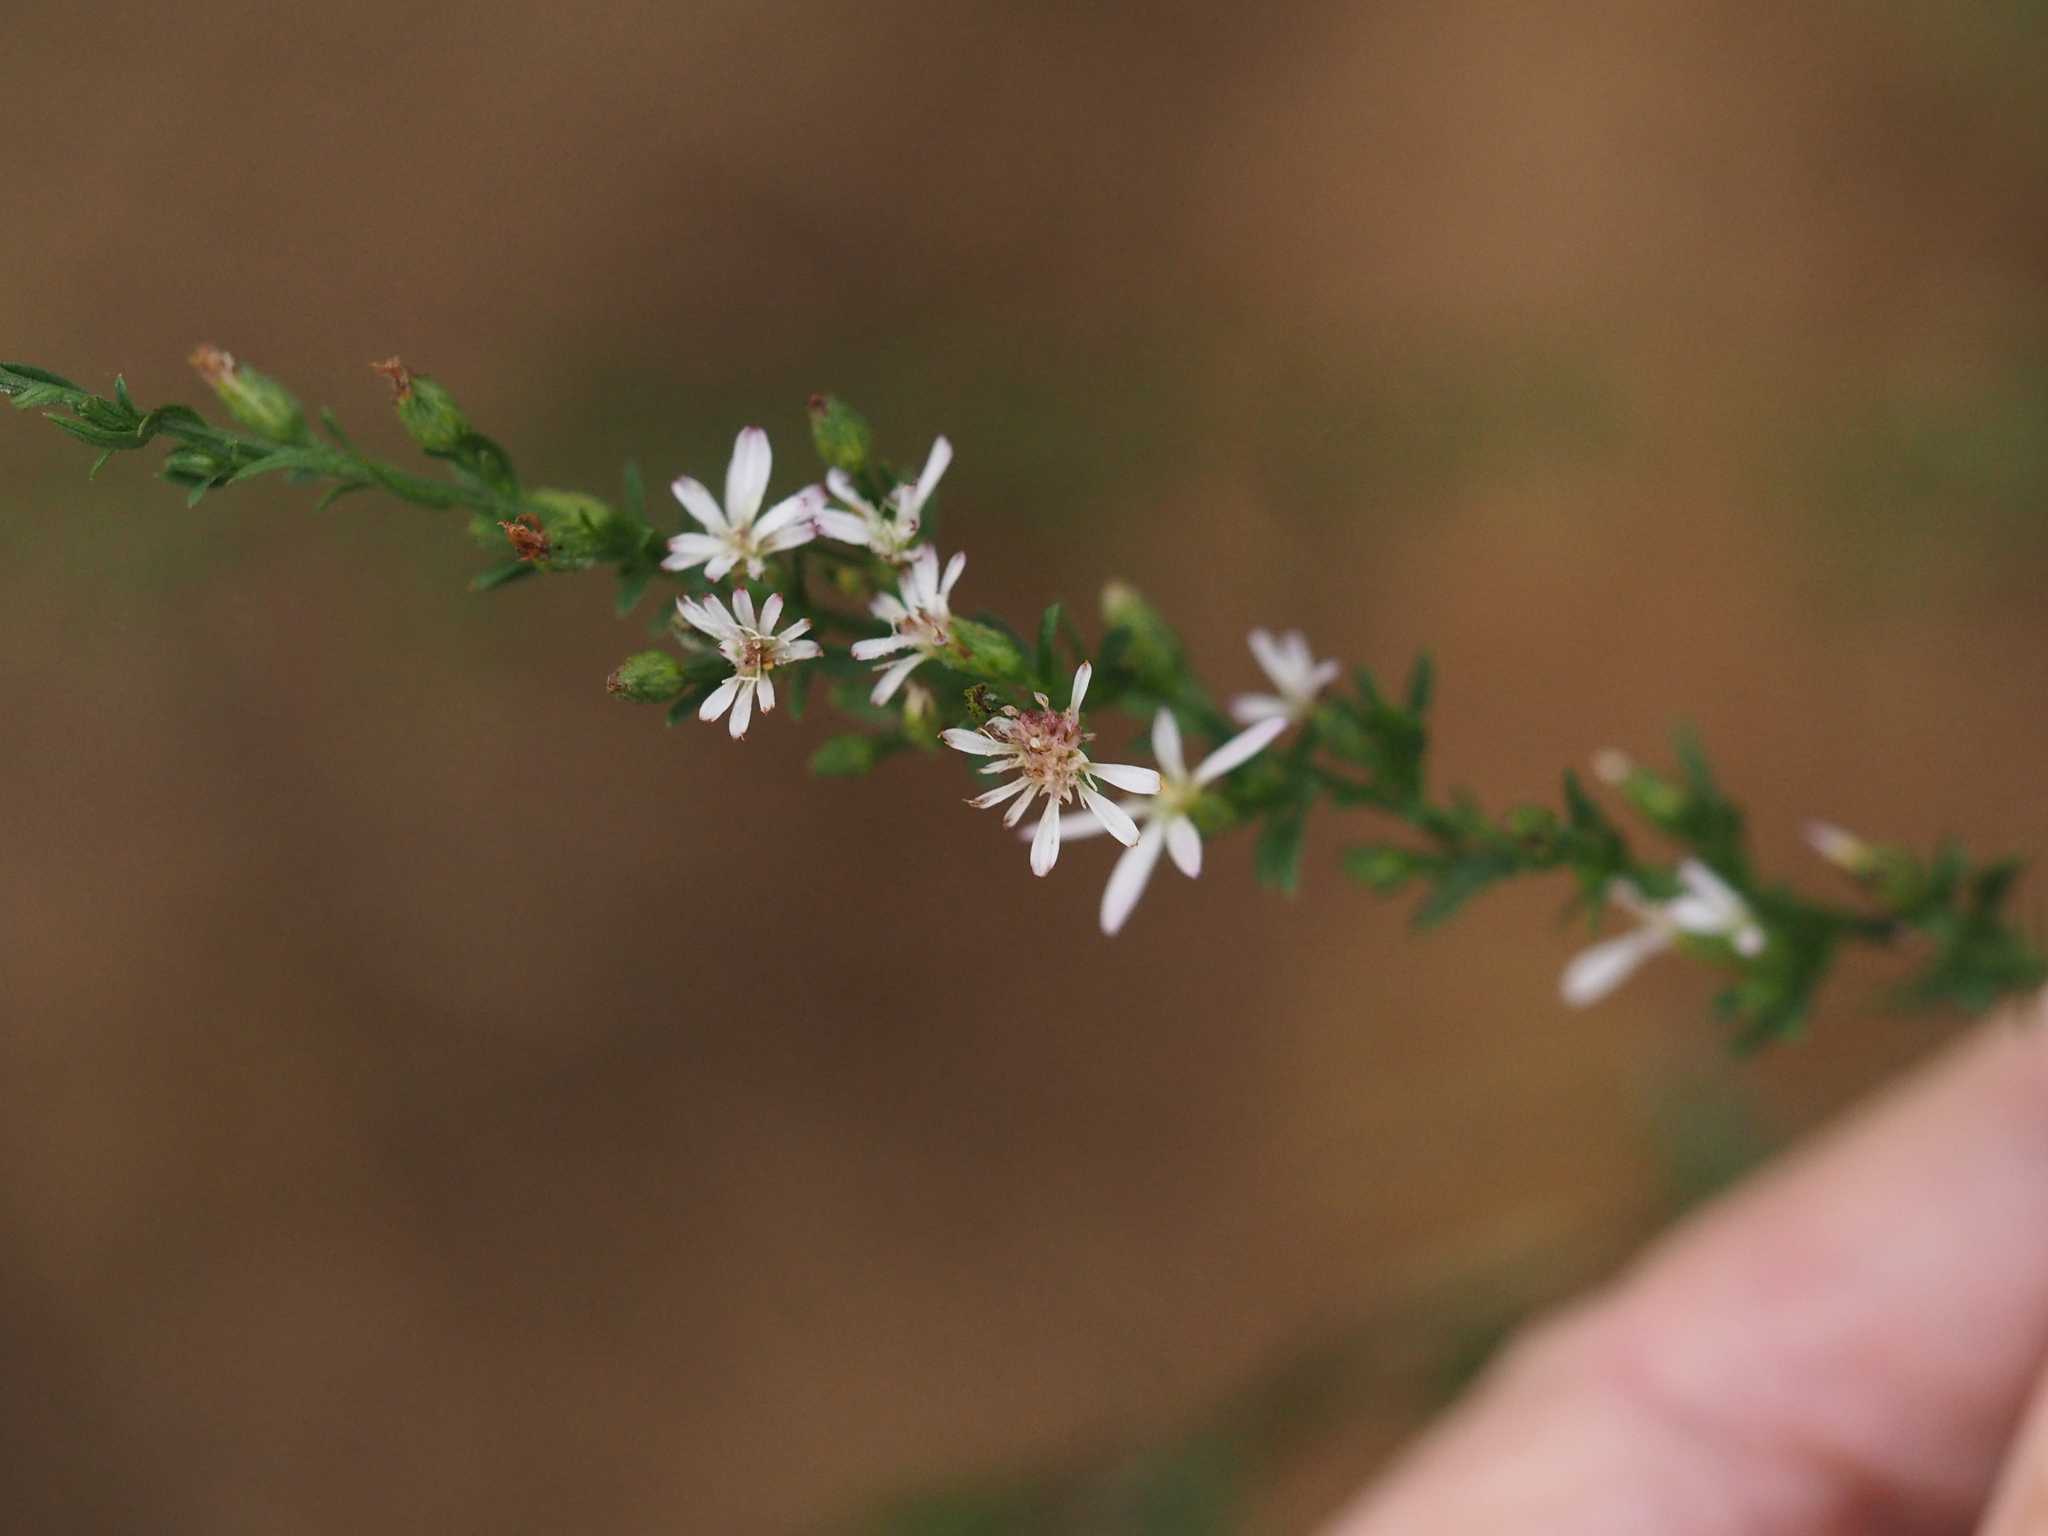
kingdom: Plantae
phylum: Tracheophyta
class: Magnoliopsida
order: Asterales
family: Asteraceae
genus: Symphyotrichum
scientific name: Symphyotrichum lateriflorum
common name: Calico aster
